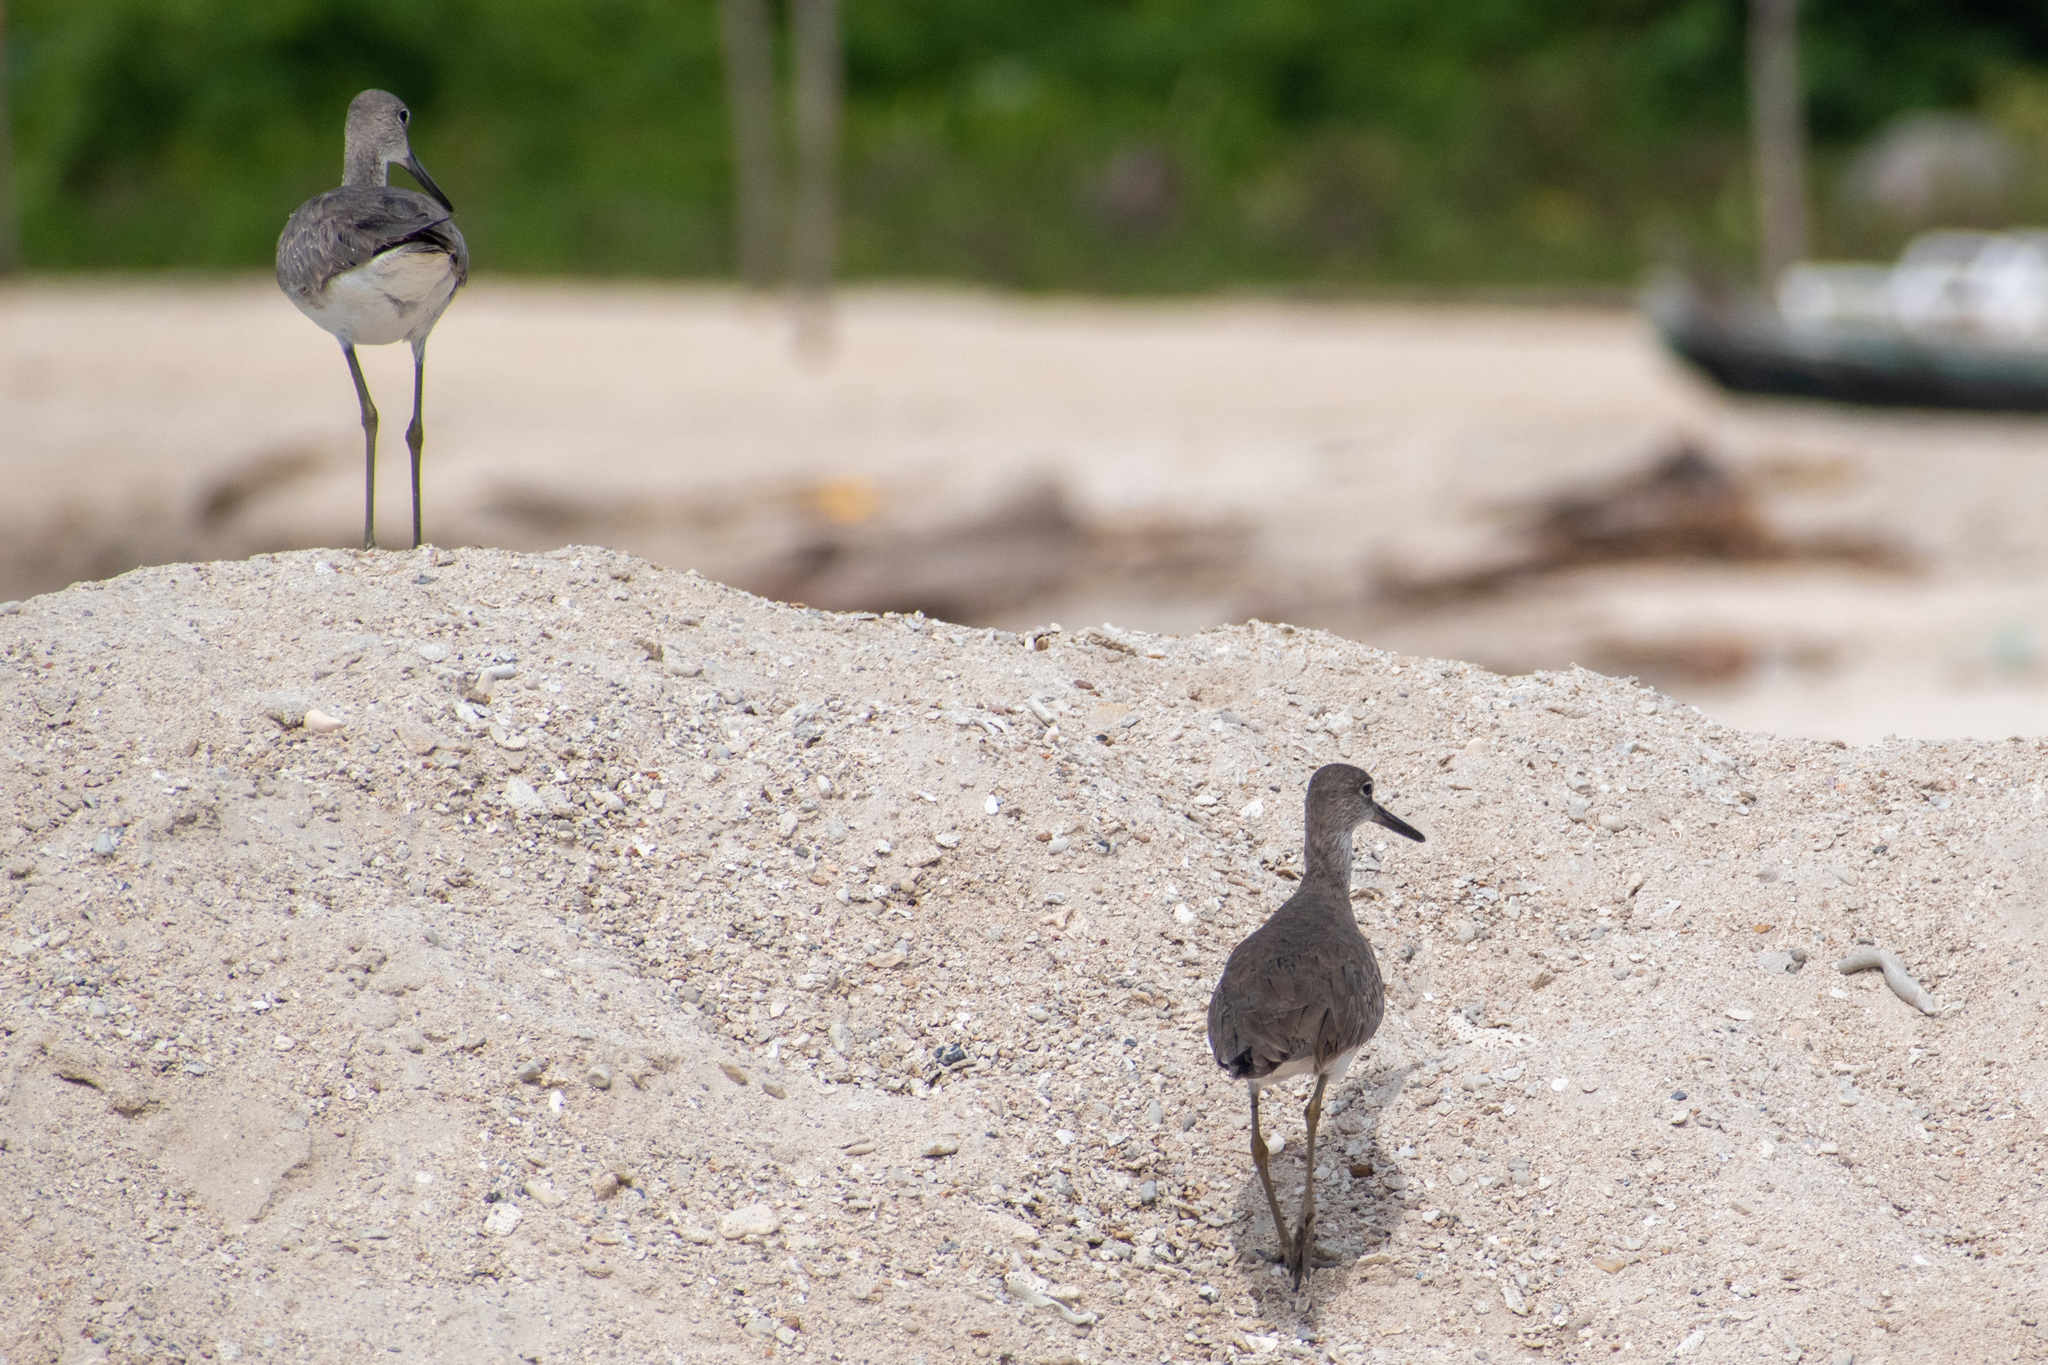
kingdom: Animalia
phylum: Chordata
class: Aves
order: Charadriiformes
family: Scolopacidae
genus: Tringa
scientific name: Tringa semipalmata
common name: Willet
